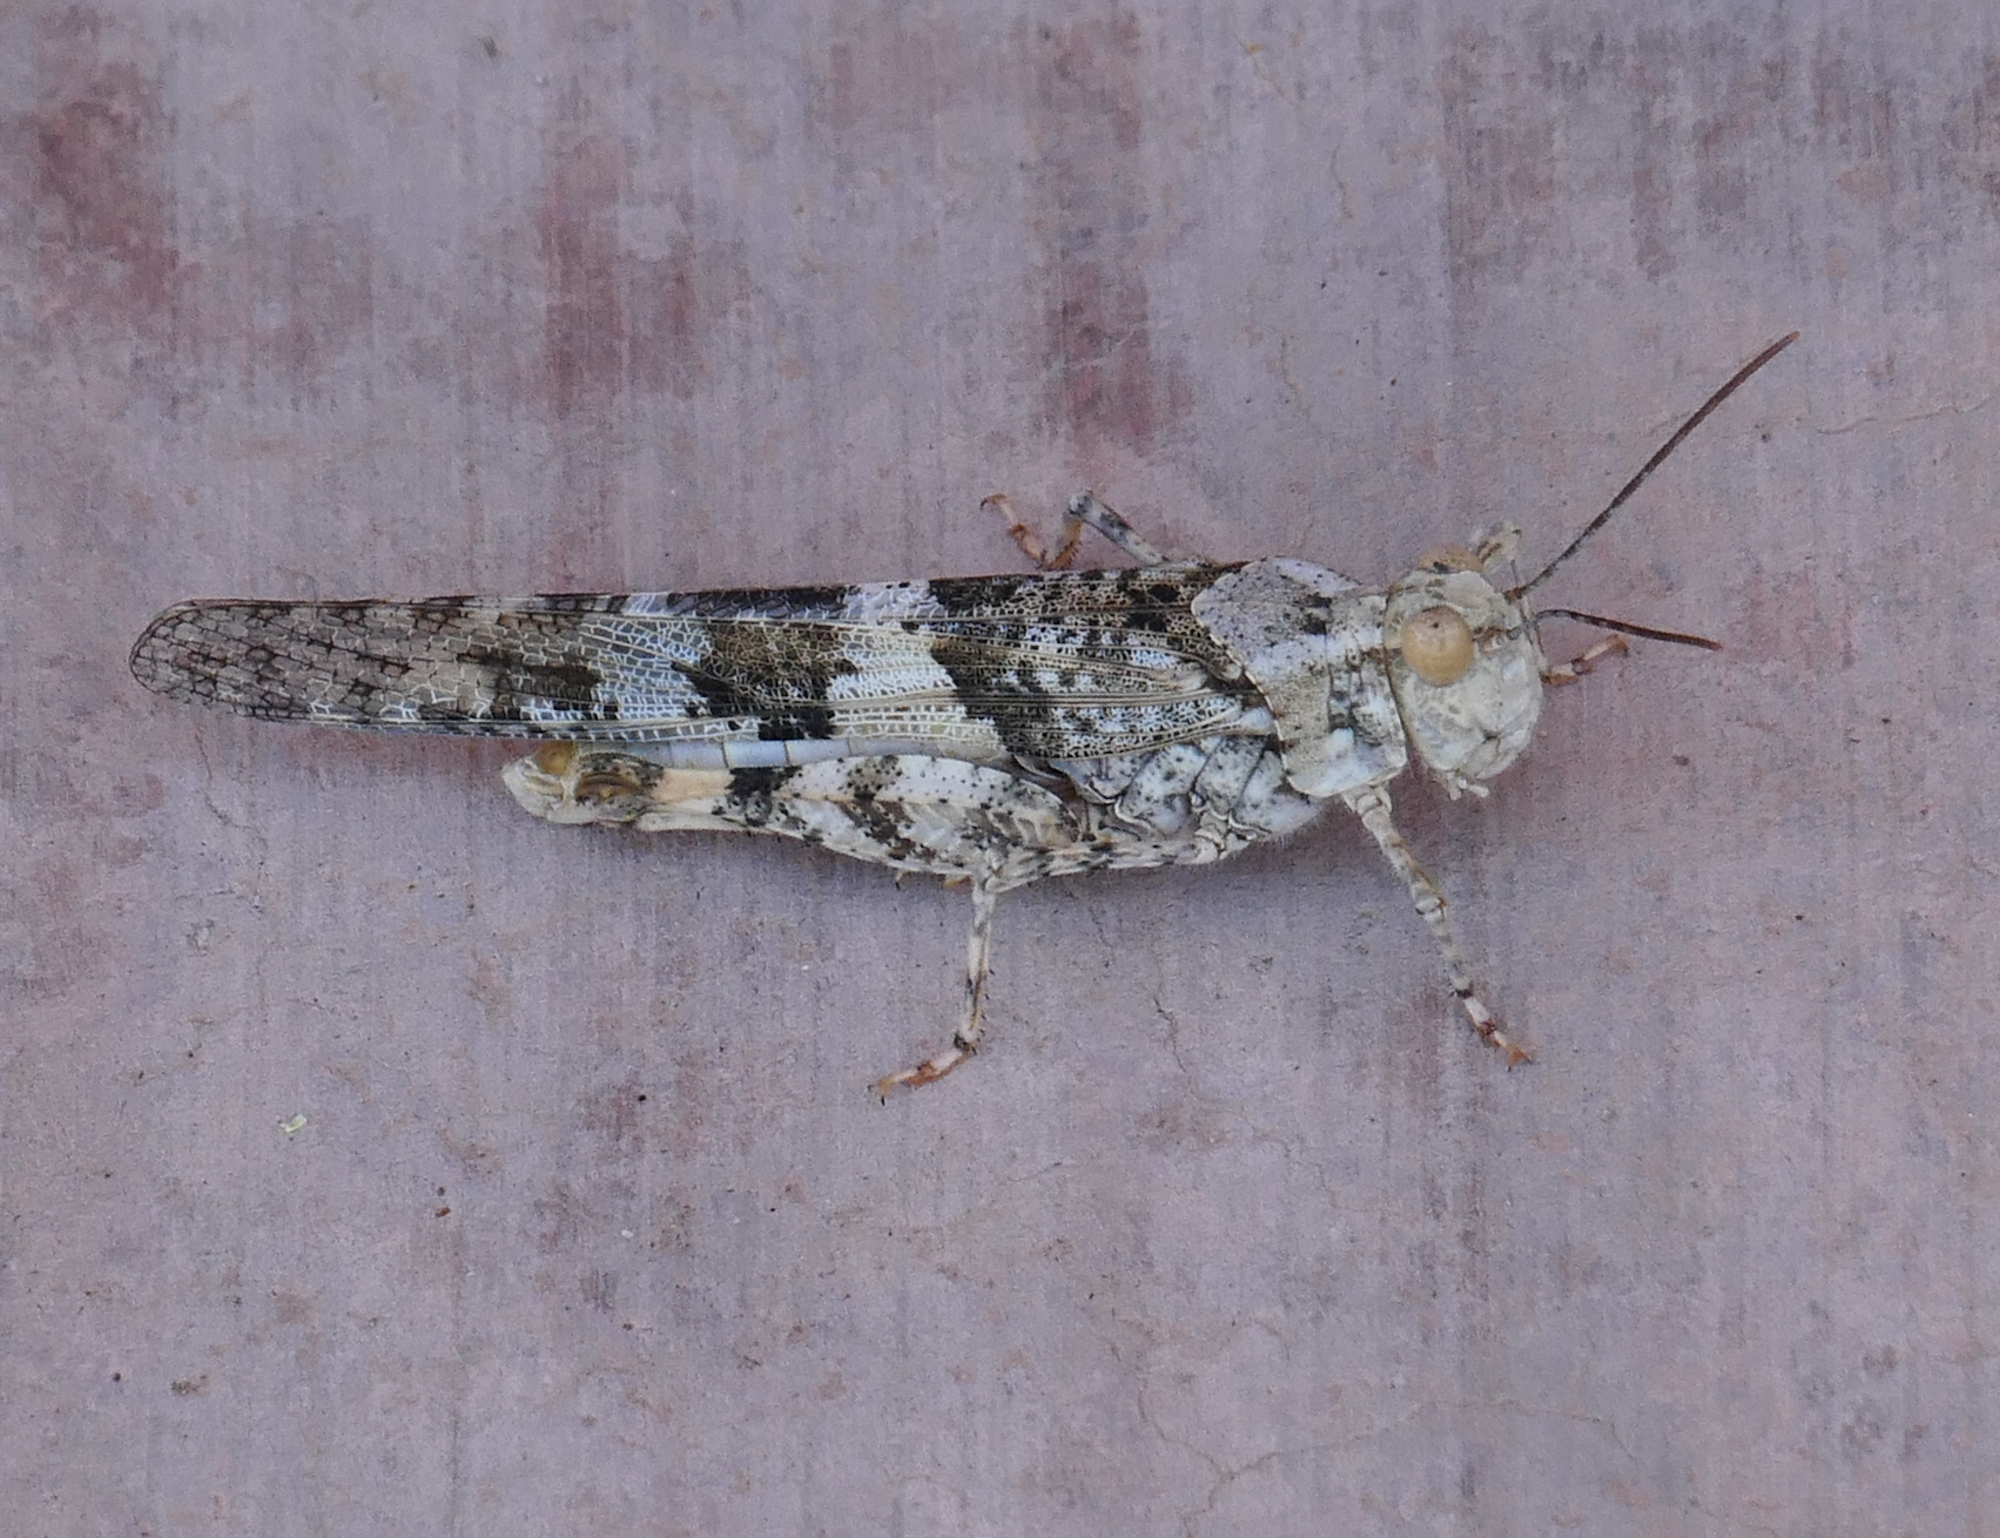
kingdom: Animalia
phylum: Arthropoda
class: Insecta
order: Orthoptera
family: Acrididae
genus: Trimerotropis
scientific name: Trimerotropis pallidipennis
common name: Pallid-winged grasshopper
